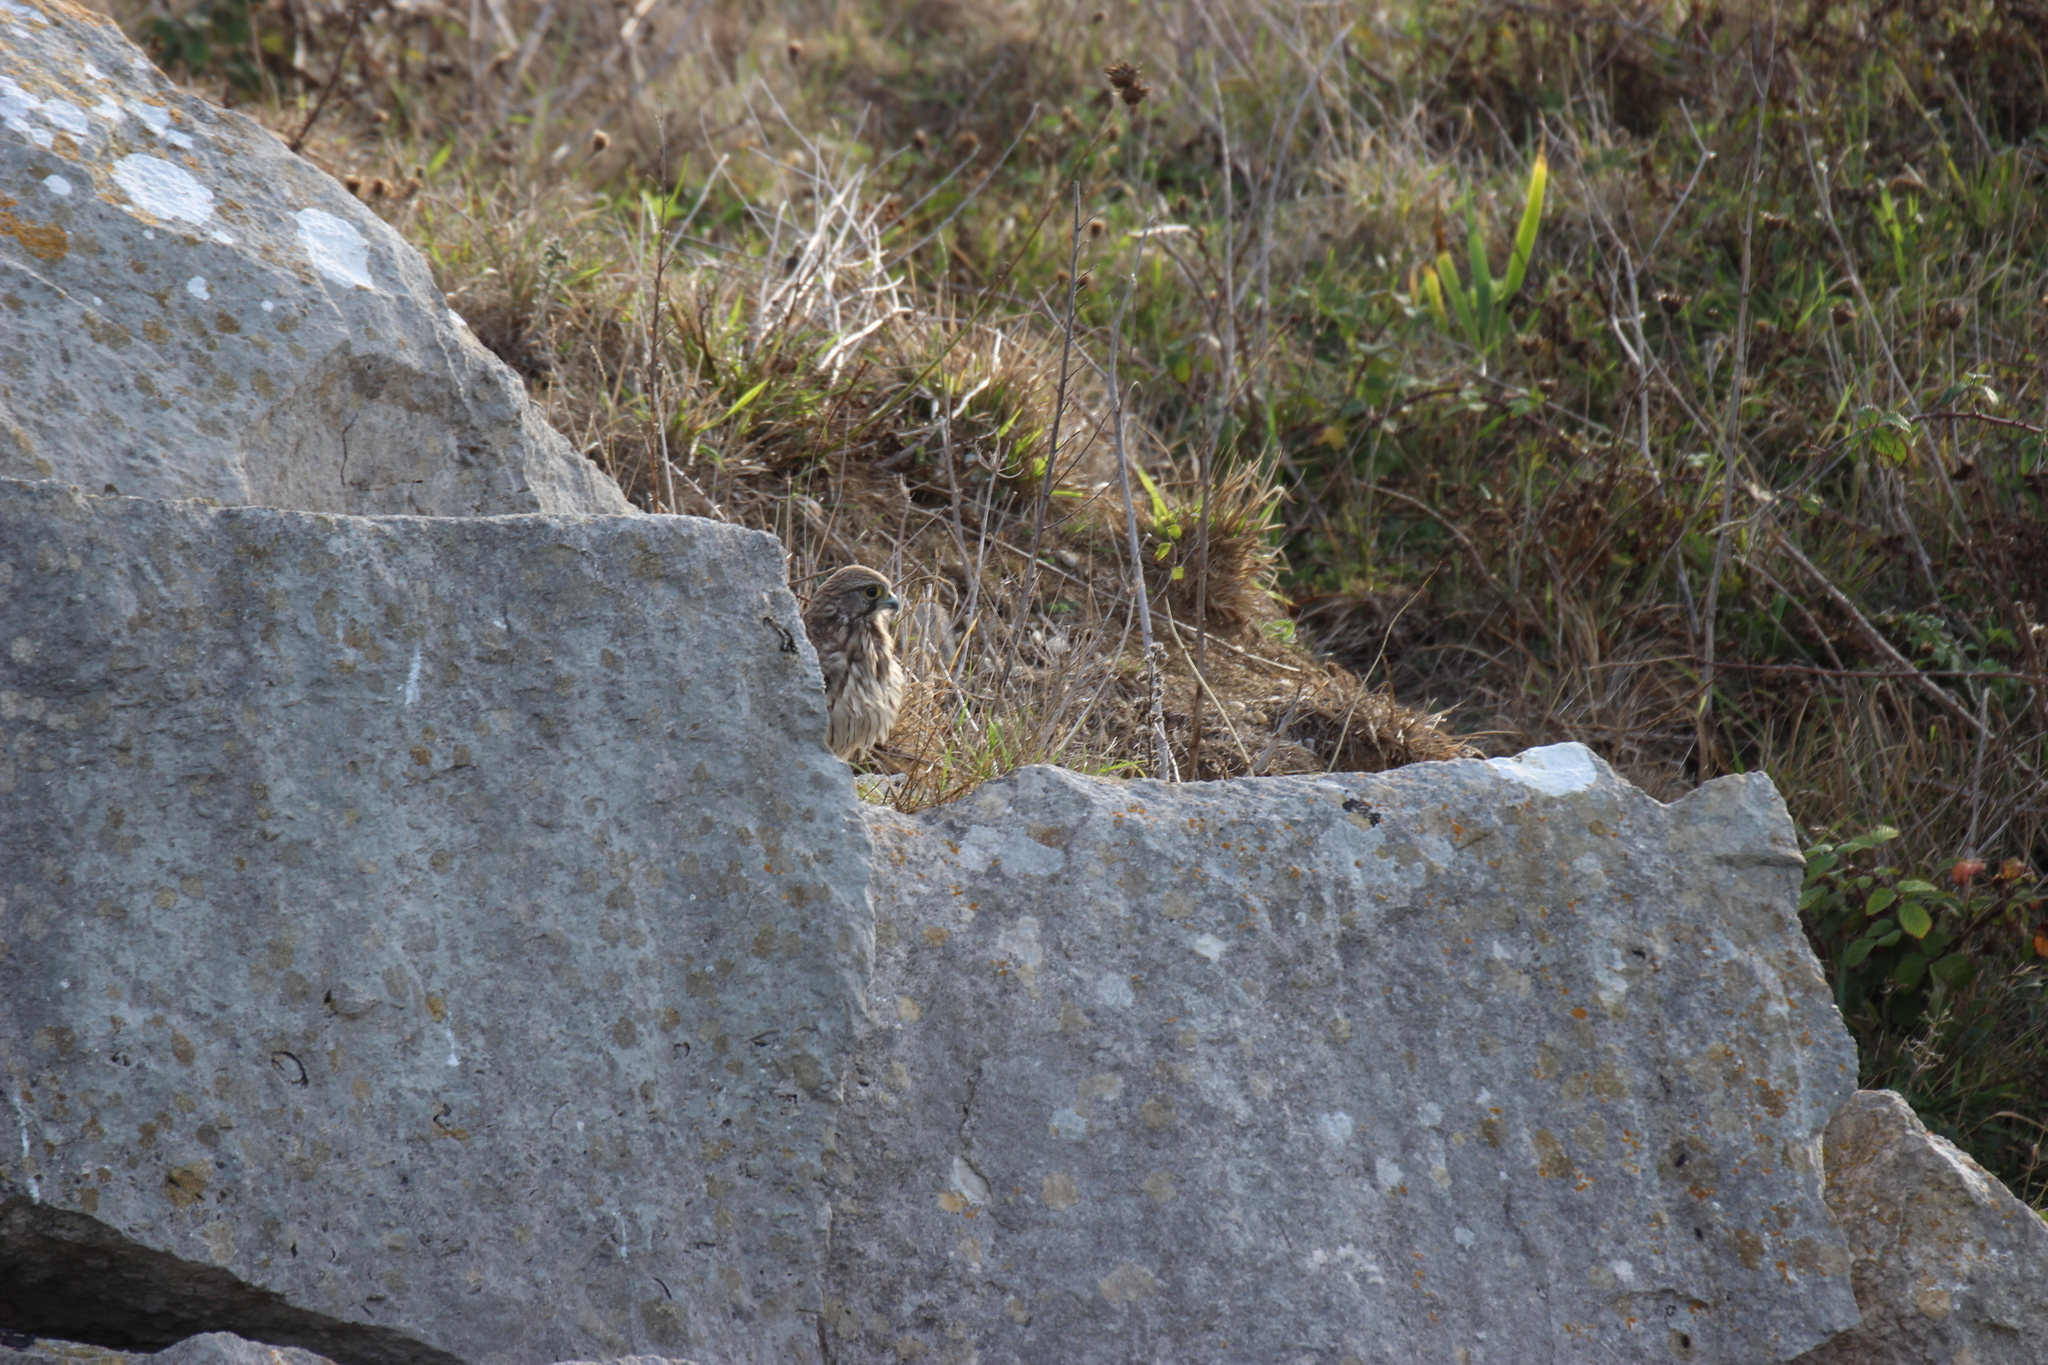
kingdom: Animalia
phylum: Chordata
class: Aves
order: Falconiformes
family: Falconidae
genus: Falco
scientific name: Falco tinnunculus
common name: Common kestrel
